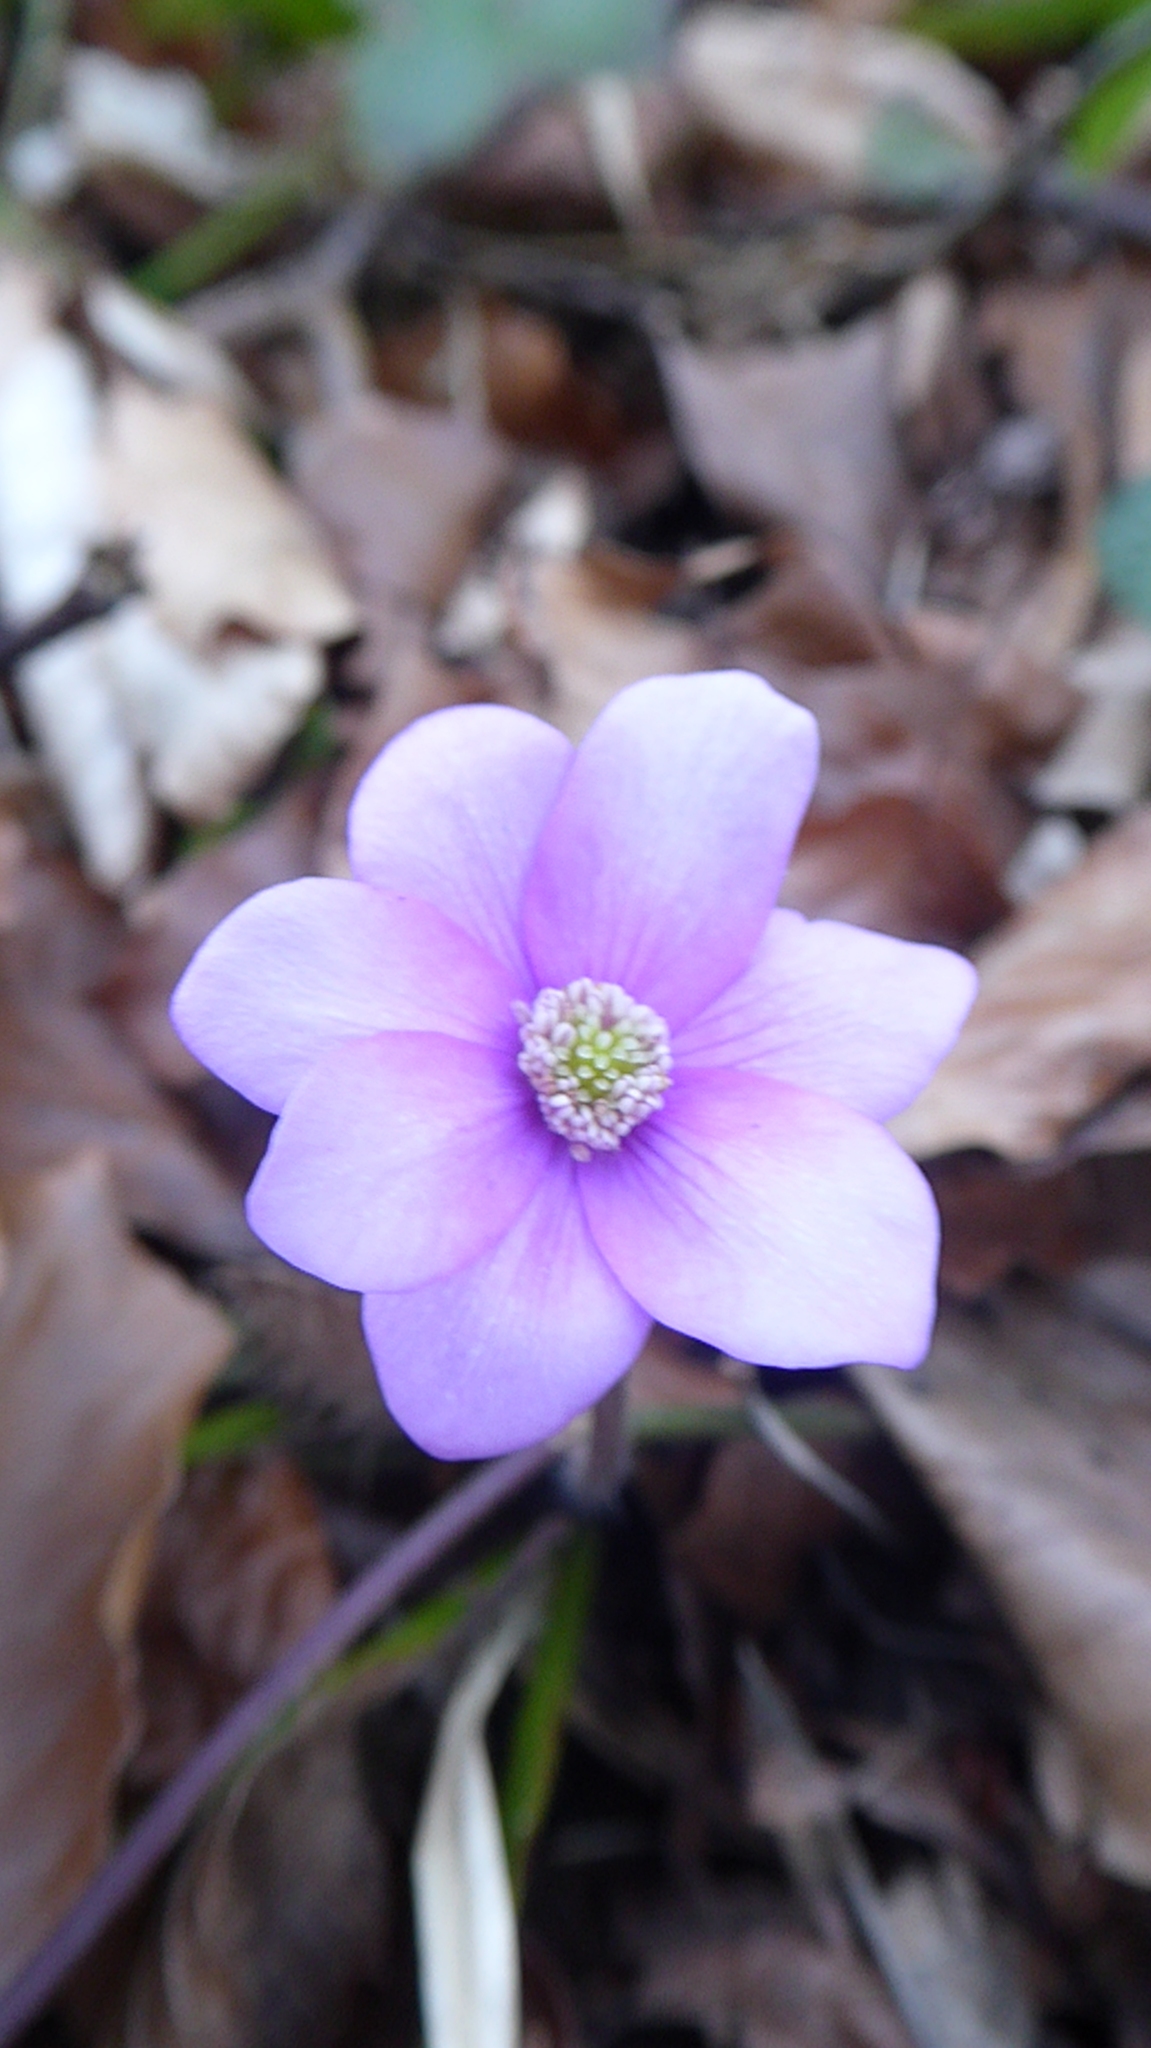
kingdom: Plantae
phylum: Tracheophyta
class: Magnoliopsida
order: Ranunculales
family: Ranunculaceae
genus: Hepatica
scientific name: Hepatica nobilis
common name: Liverleaf
